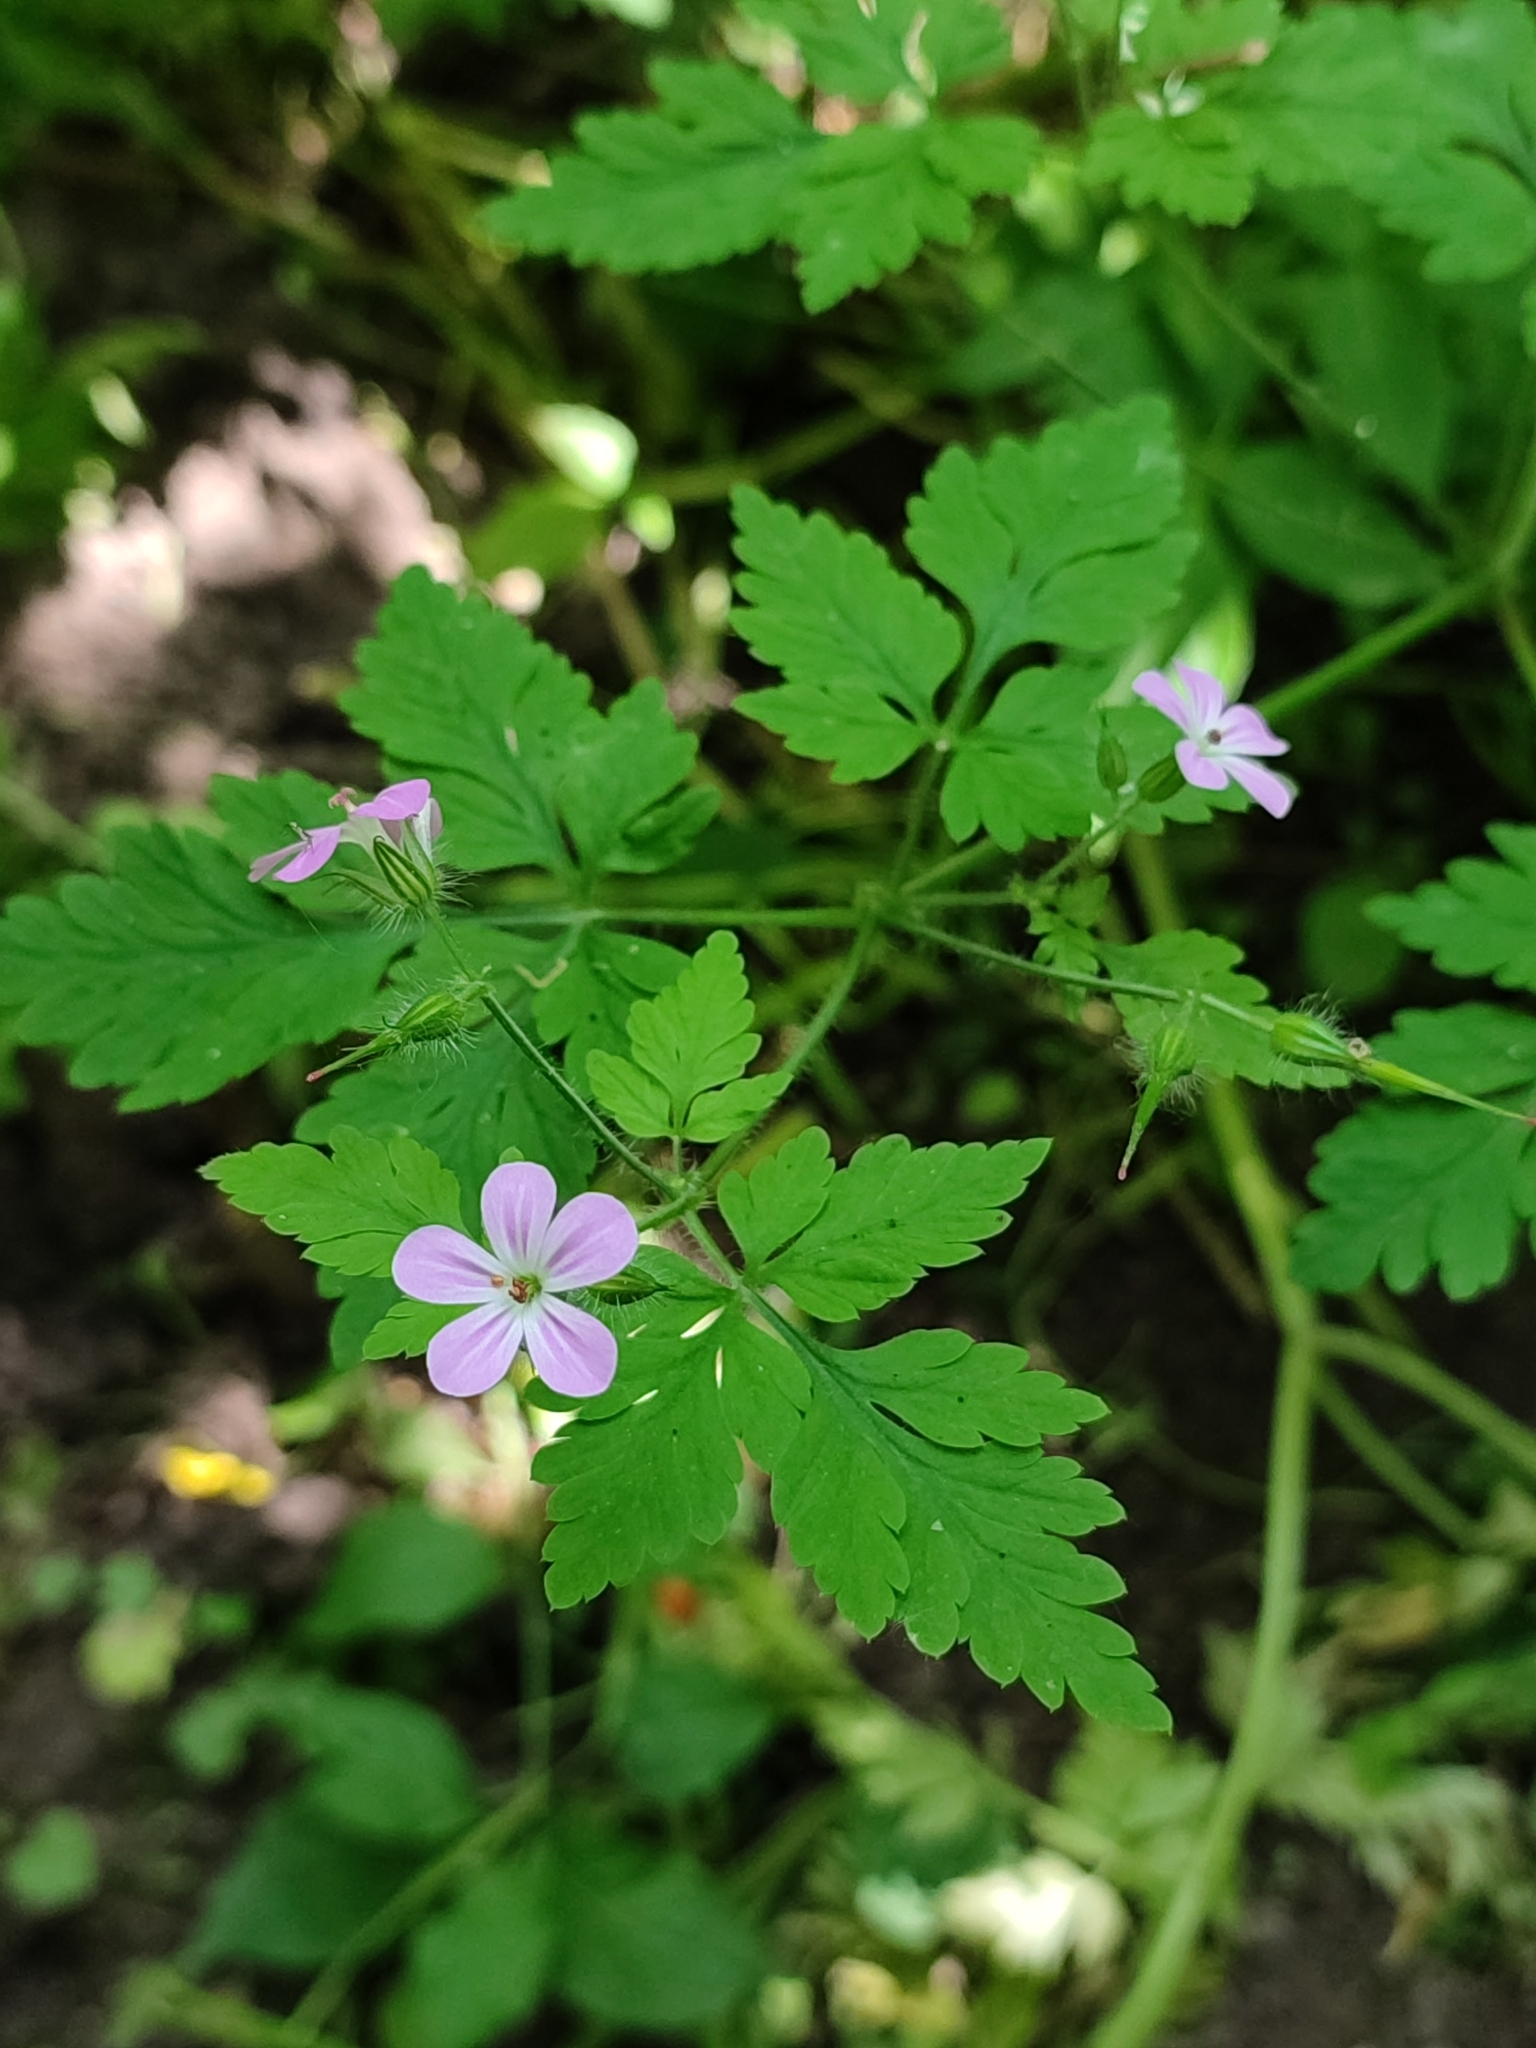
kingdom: Plantae
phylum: Tracheophyta
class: Magnoliopsida
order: Geraniales
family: Geraniaceae
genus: Geranium
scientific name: Geranium robertianum
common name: Herb-robert
